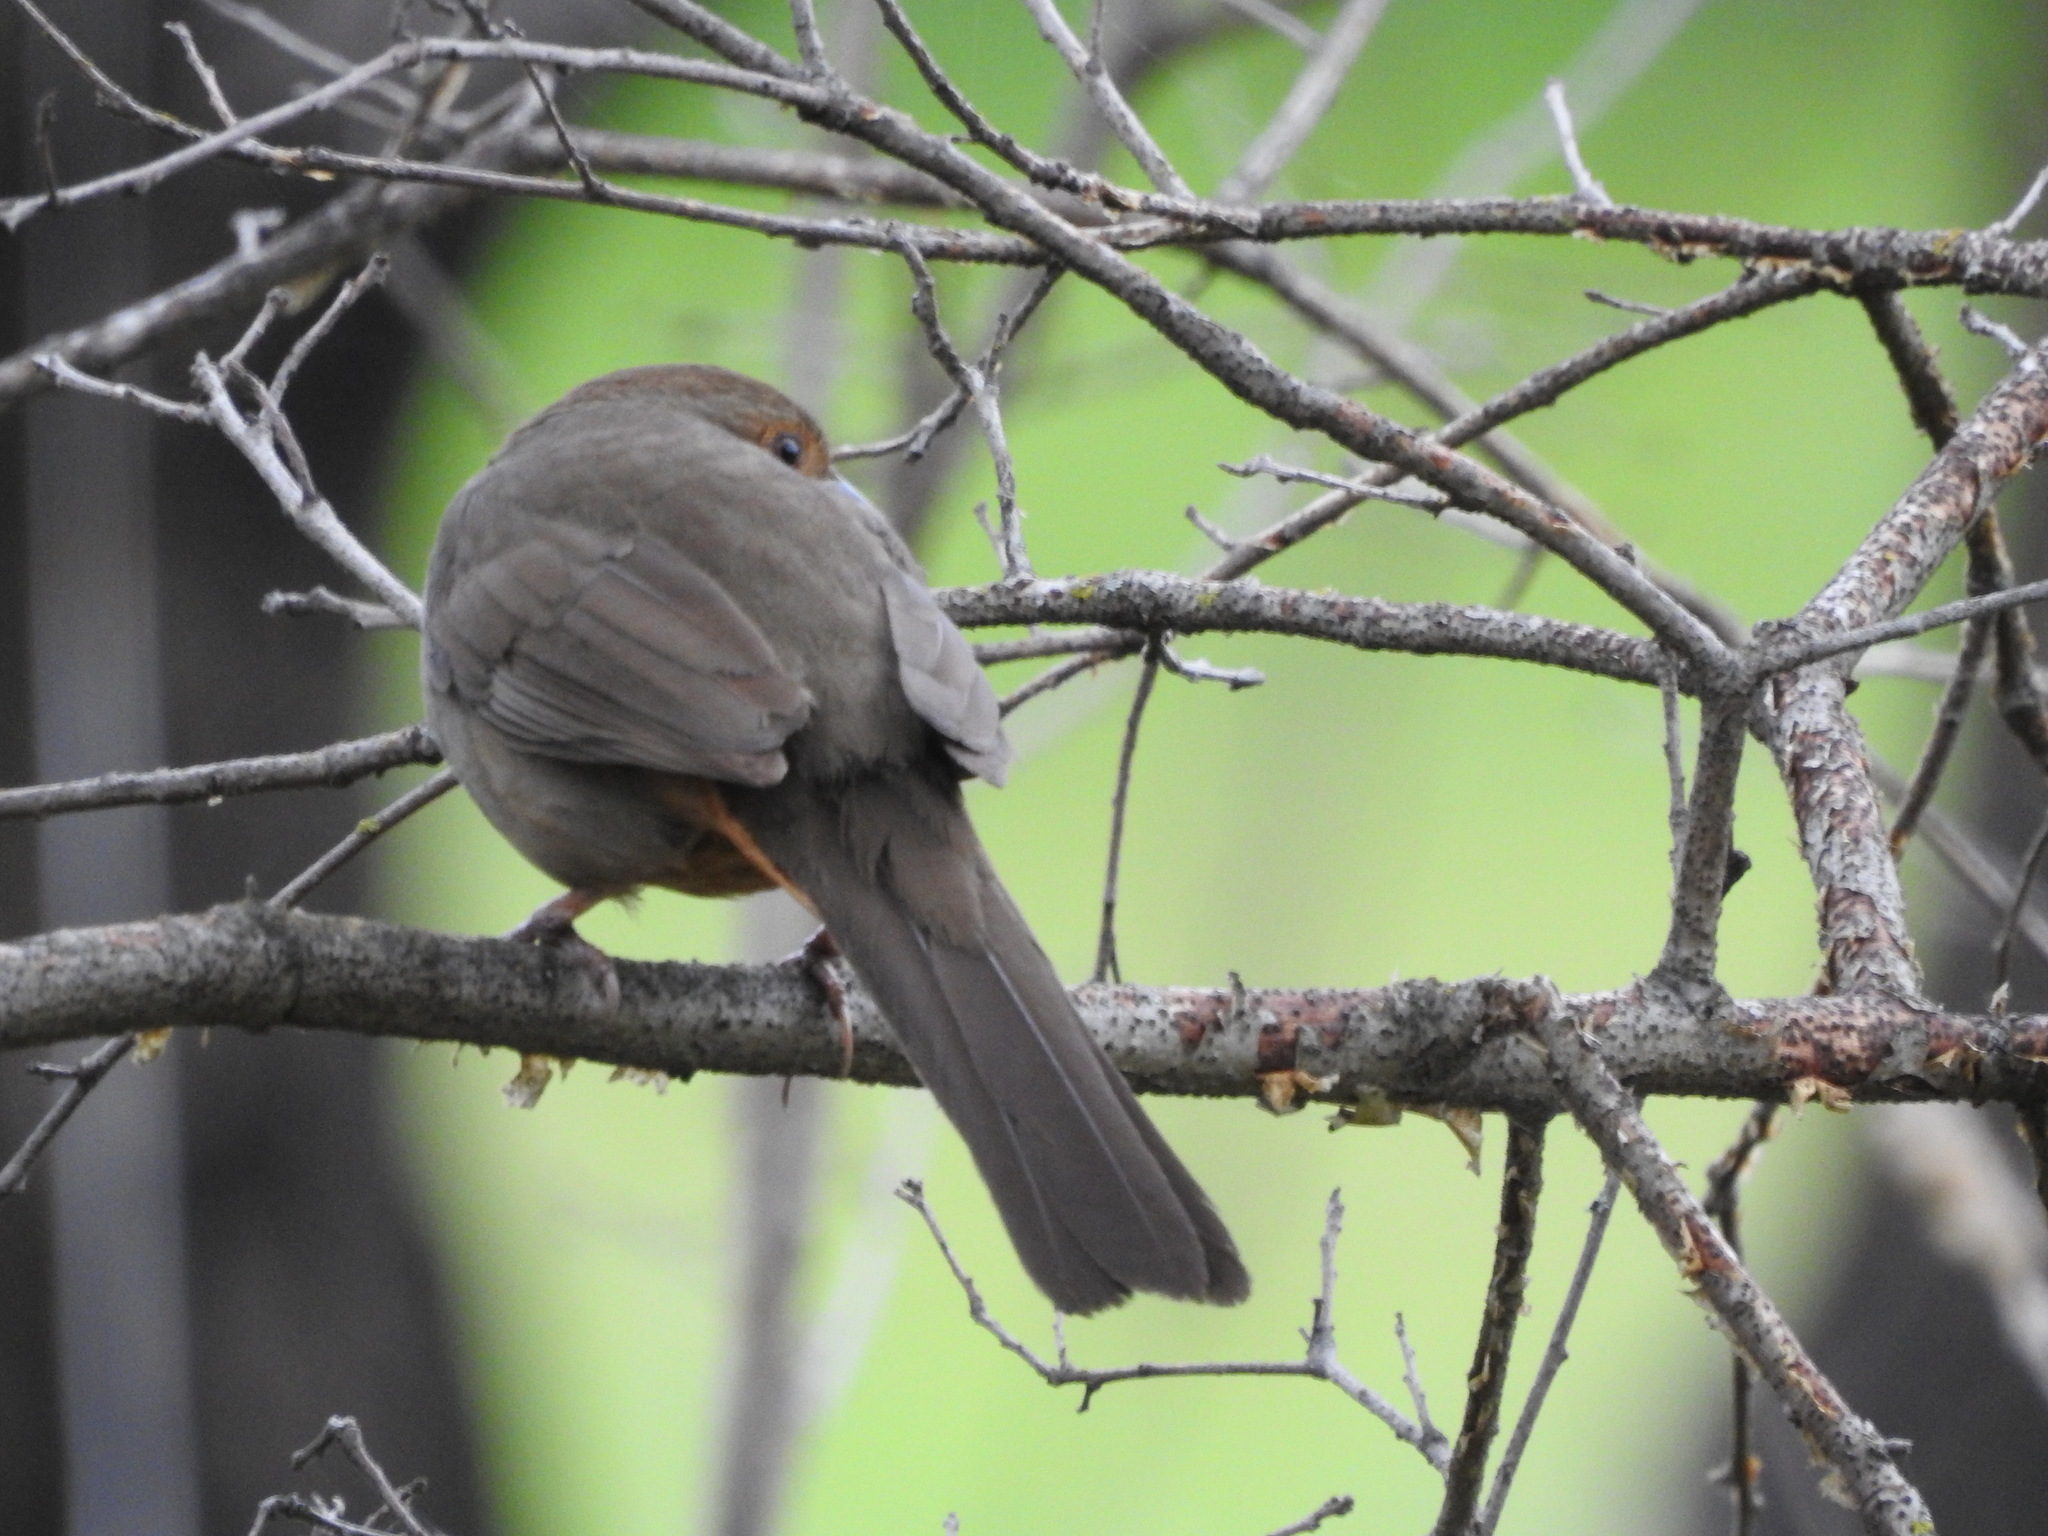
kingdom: Animalia
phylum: Chordata
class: Aves
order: Passeriformes
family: Passerellidae
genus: Melozone
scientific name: Melozone crissalis
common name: California towhee
